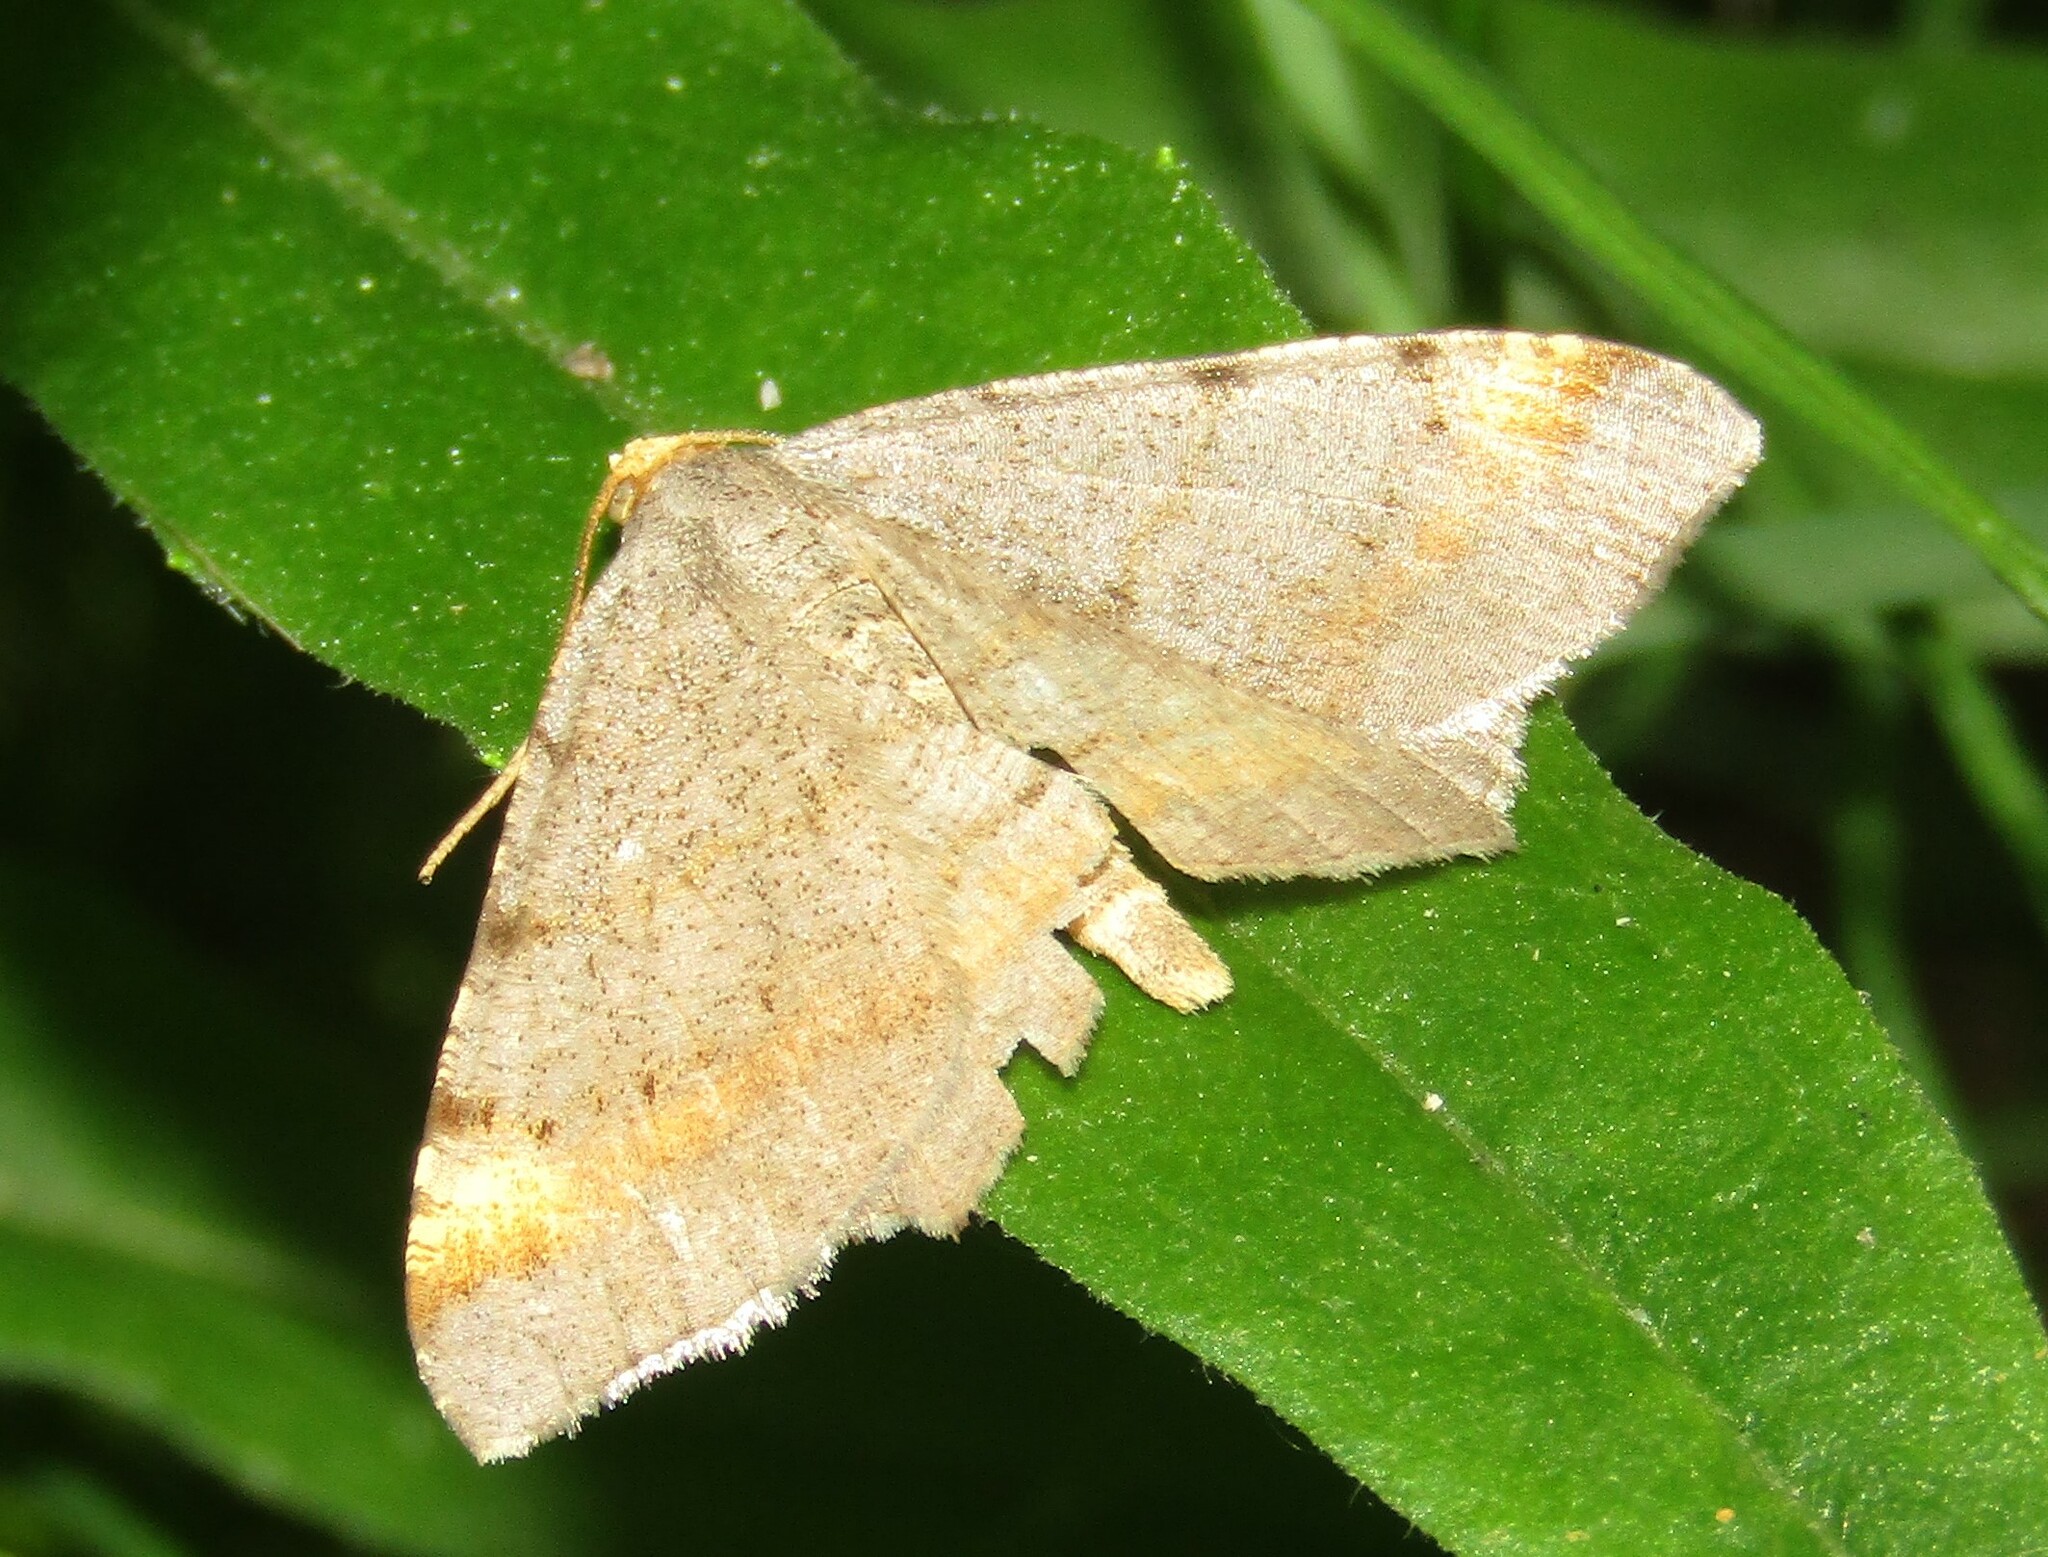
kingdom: Animalia
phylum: Arthropoda
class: Insecta
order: Lepidoptera
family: Geometridae
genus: Macaria
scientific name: Macaria liturata
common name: Tawny-barred angle
